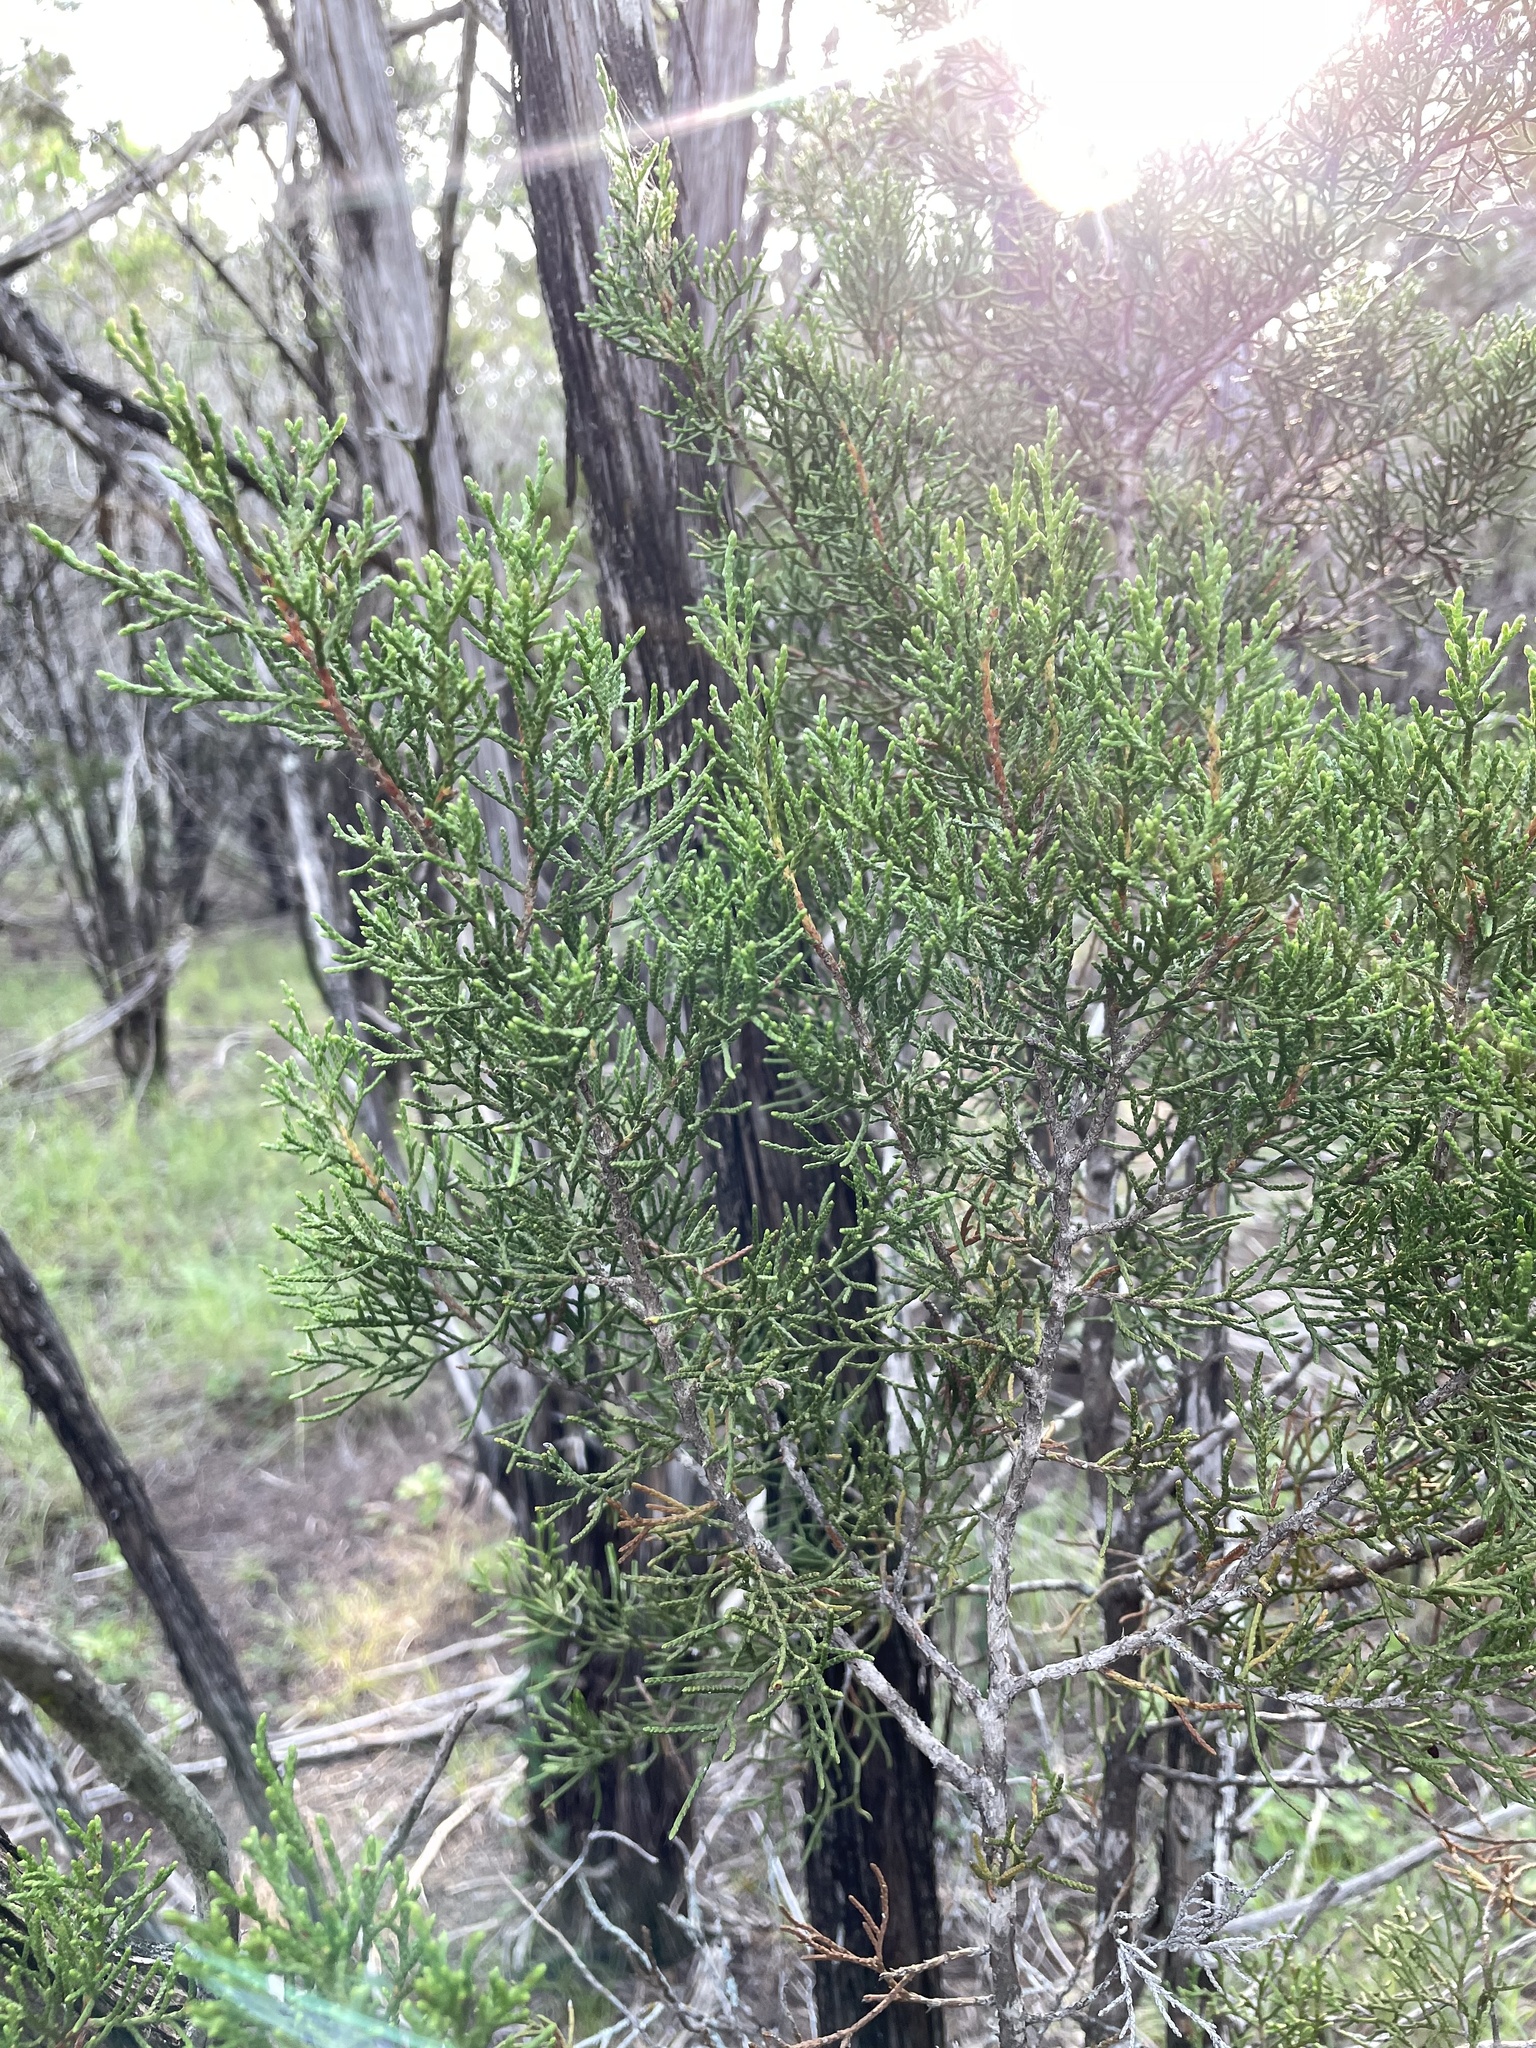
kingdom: Plantae
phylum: Tracheophyta
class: Pinopsida
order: Pinales
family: Cupressaceae
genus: Juniperus
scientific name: Juniperus ashei
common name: Mexican juniper
